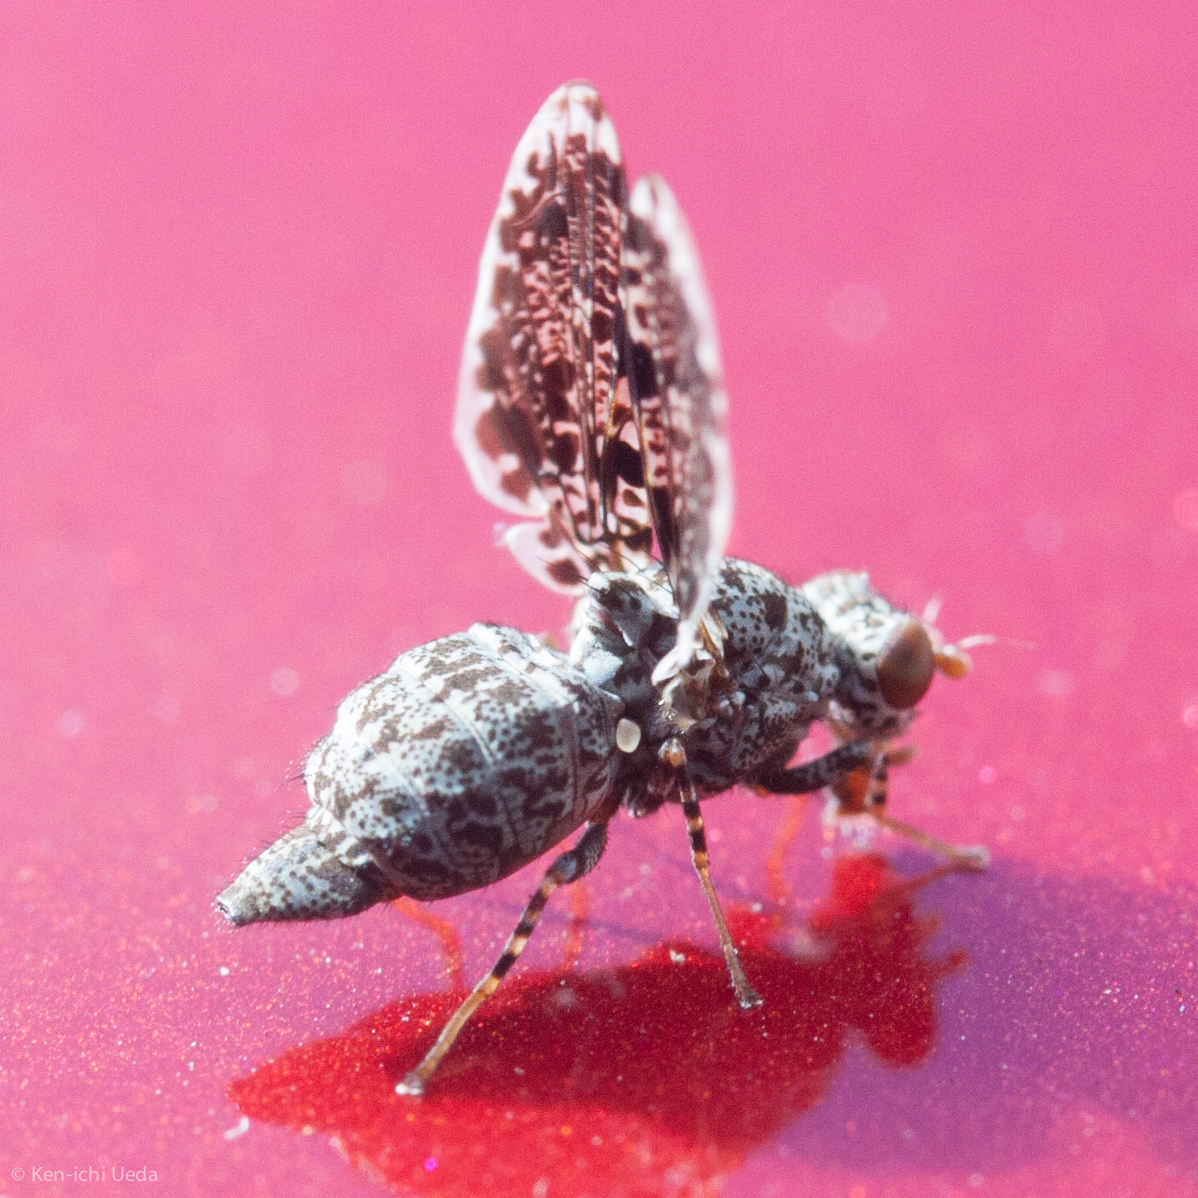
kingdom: Animalia
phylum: Arthropoda
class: Insecta
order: Diptera
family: Ulidiidae
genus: Callopistromyia
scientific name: Callopistromyia annulipes
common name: Peacock fly
